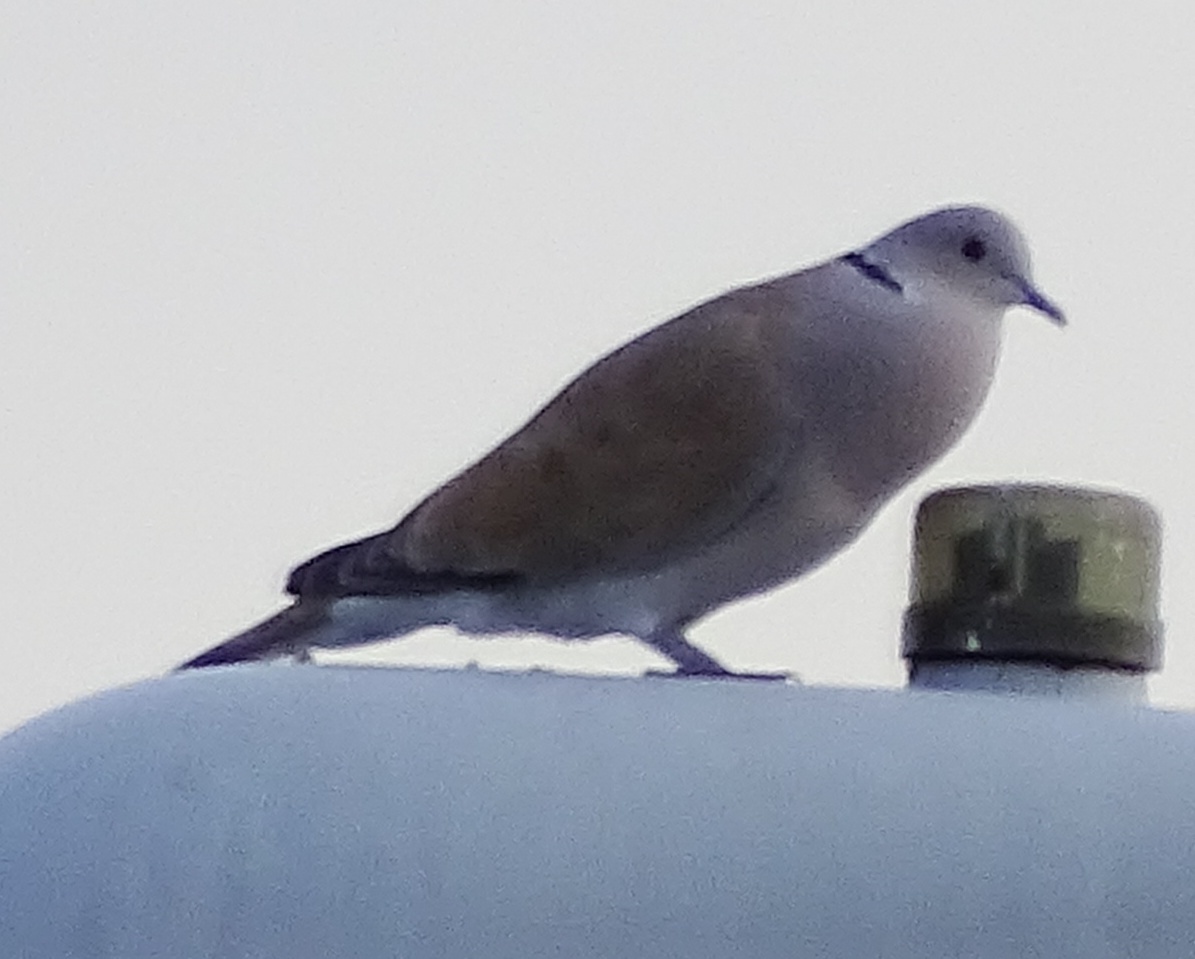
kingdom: Animalia
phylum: Chordata
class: Aves
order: Columbiformes
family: Columbidae
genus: Streptopelia
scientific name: Streptopelia decaocto
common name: Eurasian collared dove
